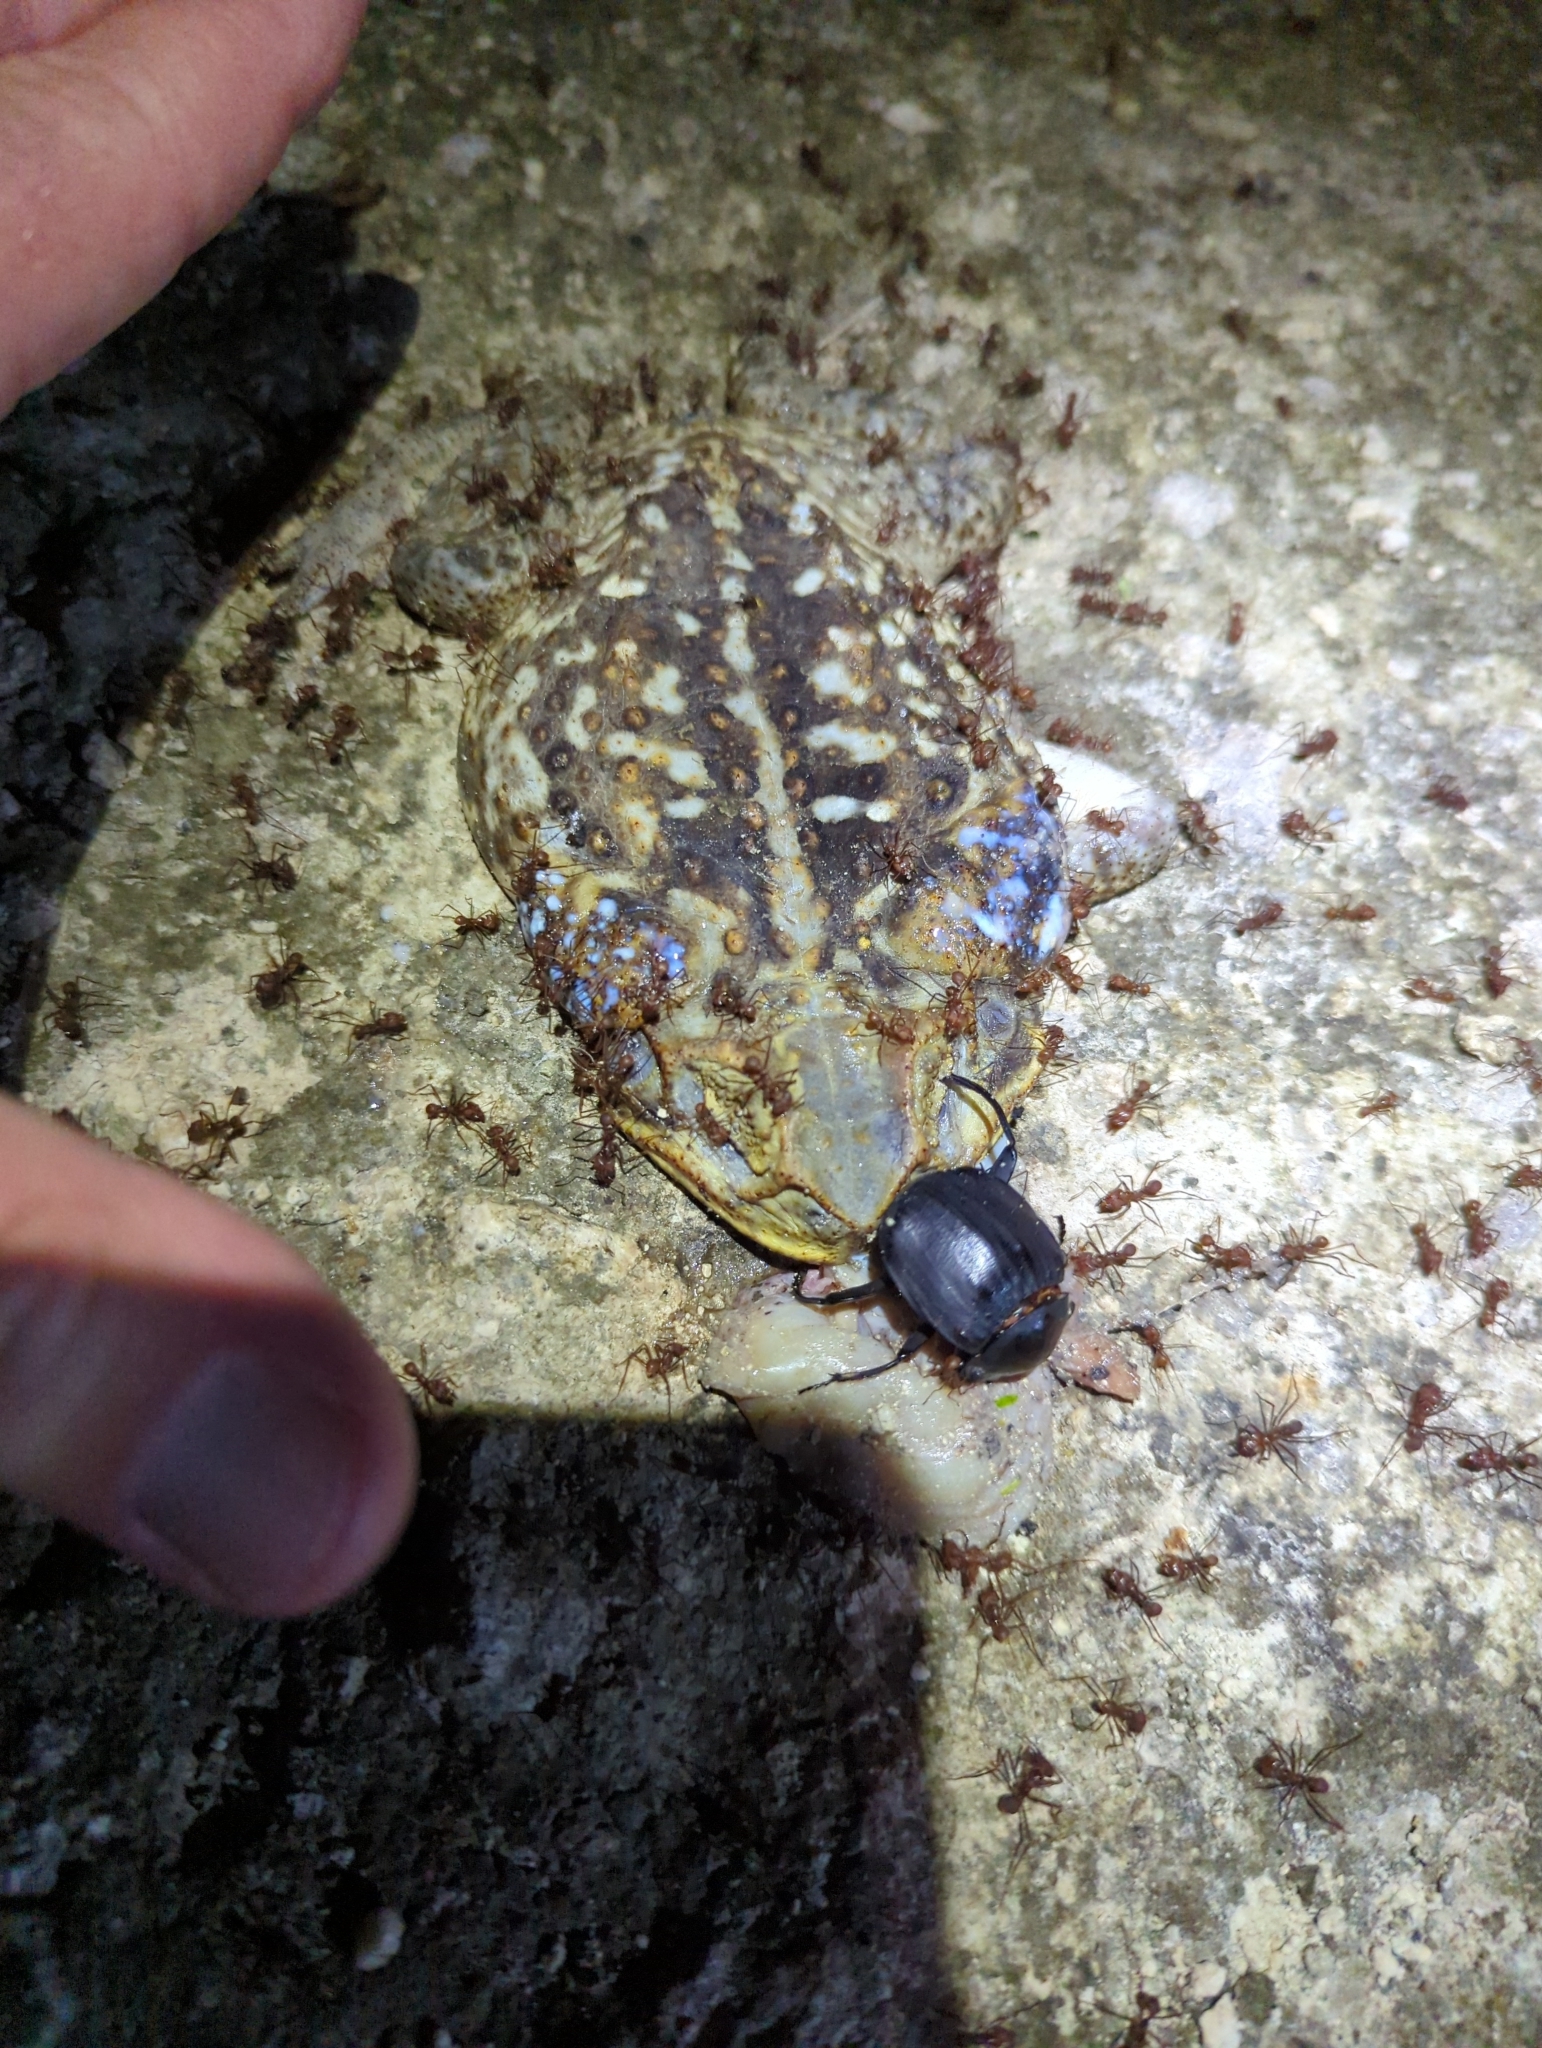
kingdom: Animalia
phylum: Chordata
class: Amphibia
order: Anura
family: Bufonidae
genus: Rhinella
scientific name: Rhinella horribilis
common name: Mesoamerican cane toad
